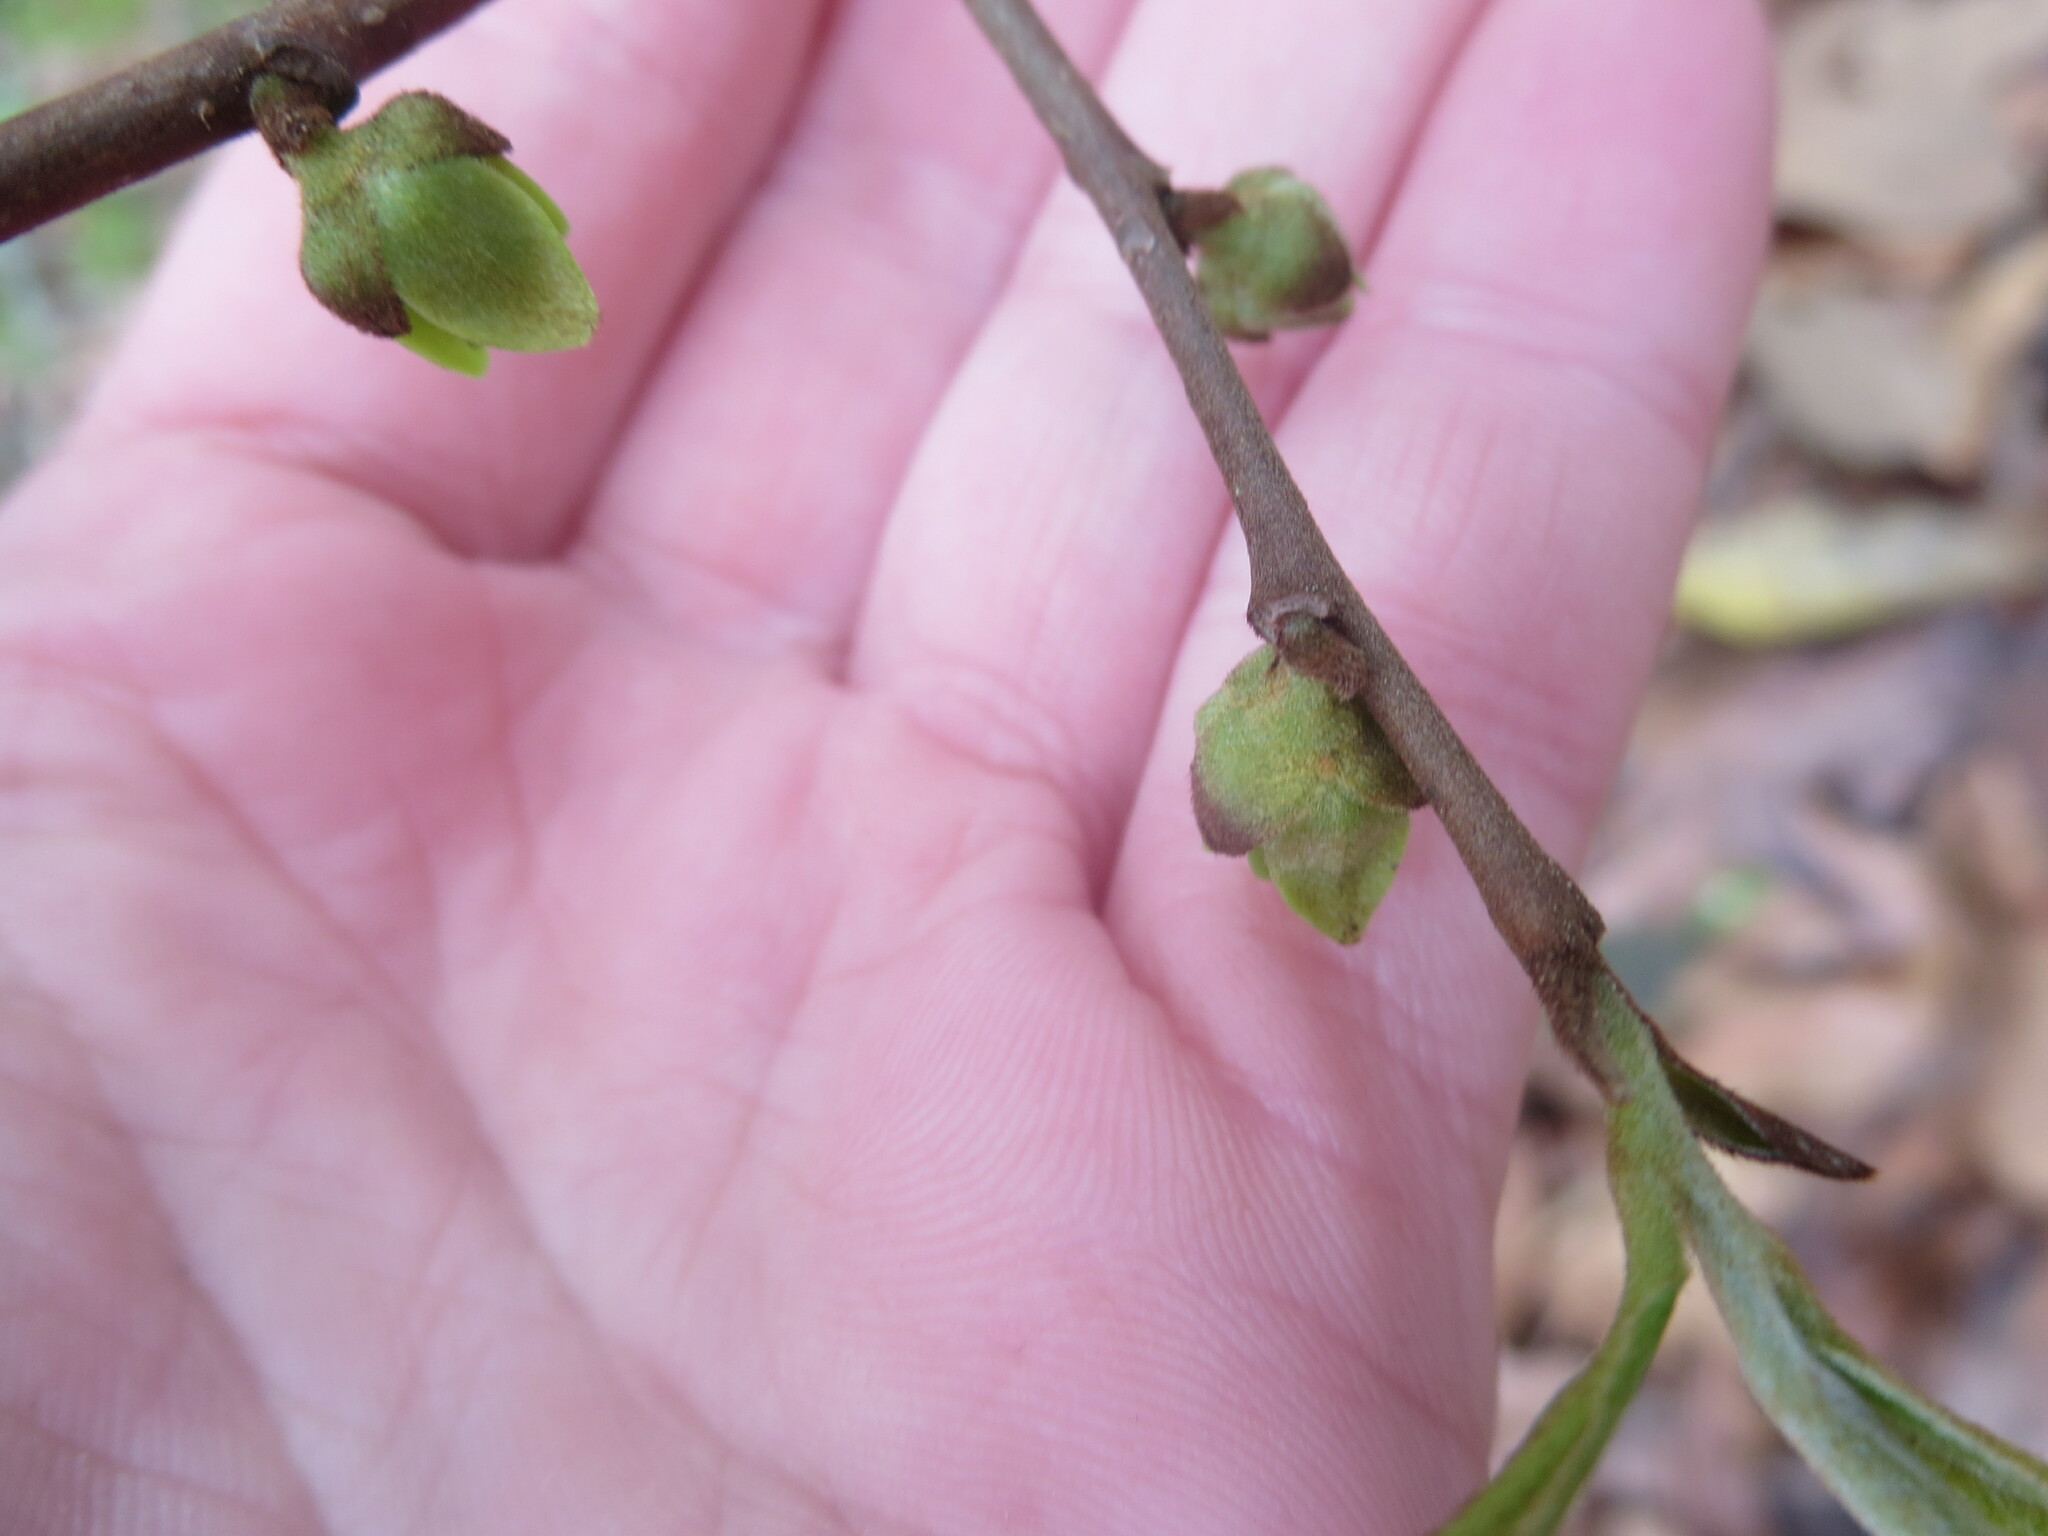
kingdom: Plantae
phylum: Tracheophyta
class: Magnoliopsida
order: Magnoliales
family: Annonaceae
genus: Asimina
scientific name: Asimina parviflora
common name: Dwarf pawpaw
